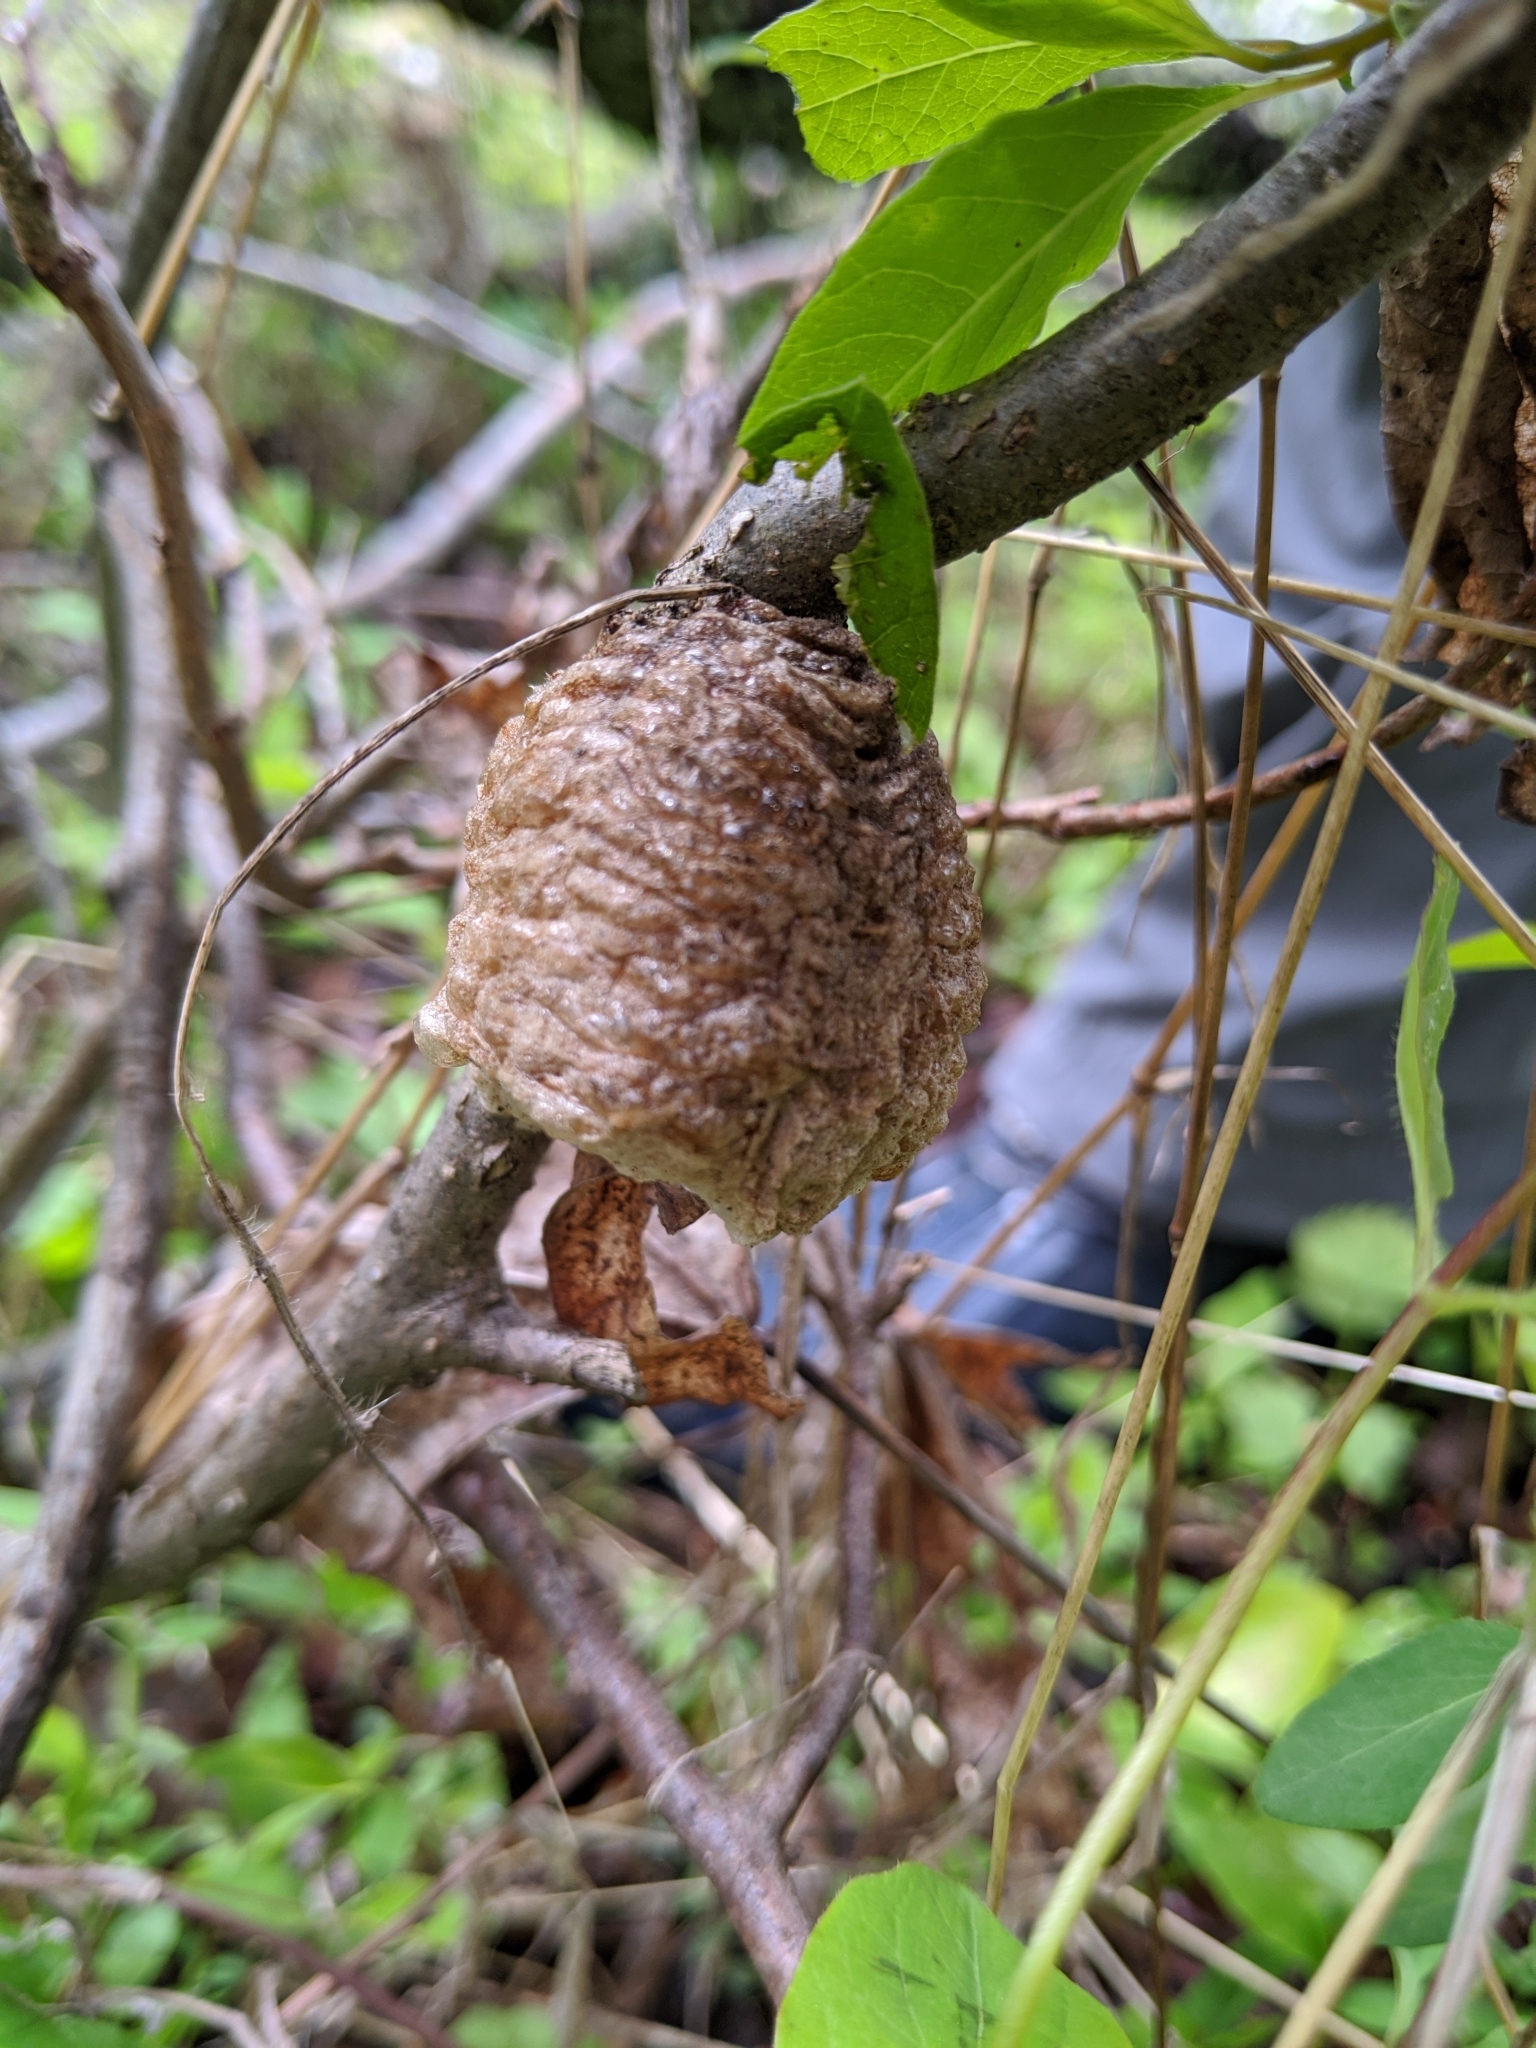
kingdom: Animalia
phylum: Arthropoda
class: Insecta
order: Mantodea
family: Mantidae
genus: Tenodera
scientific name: Tenodera sinensis
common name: Chinese mantis
